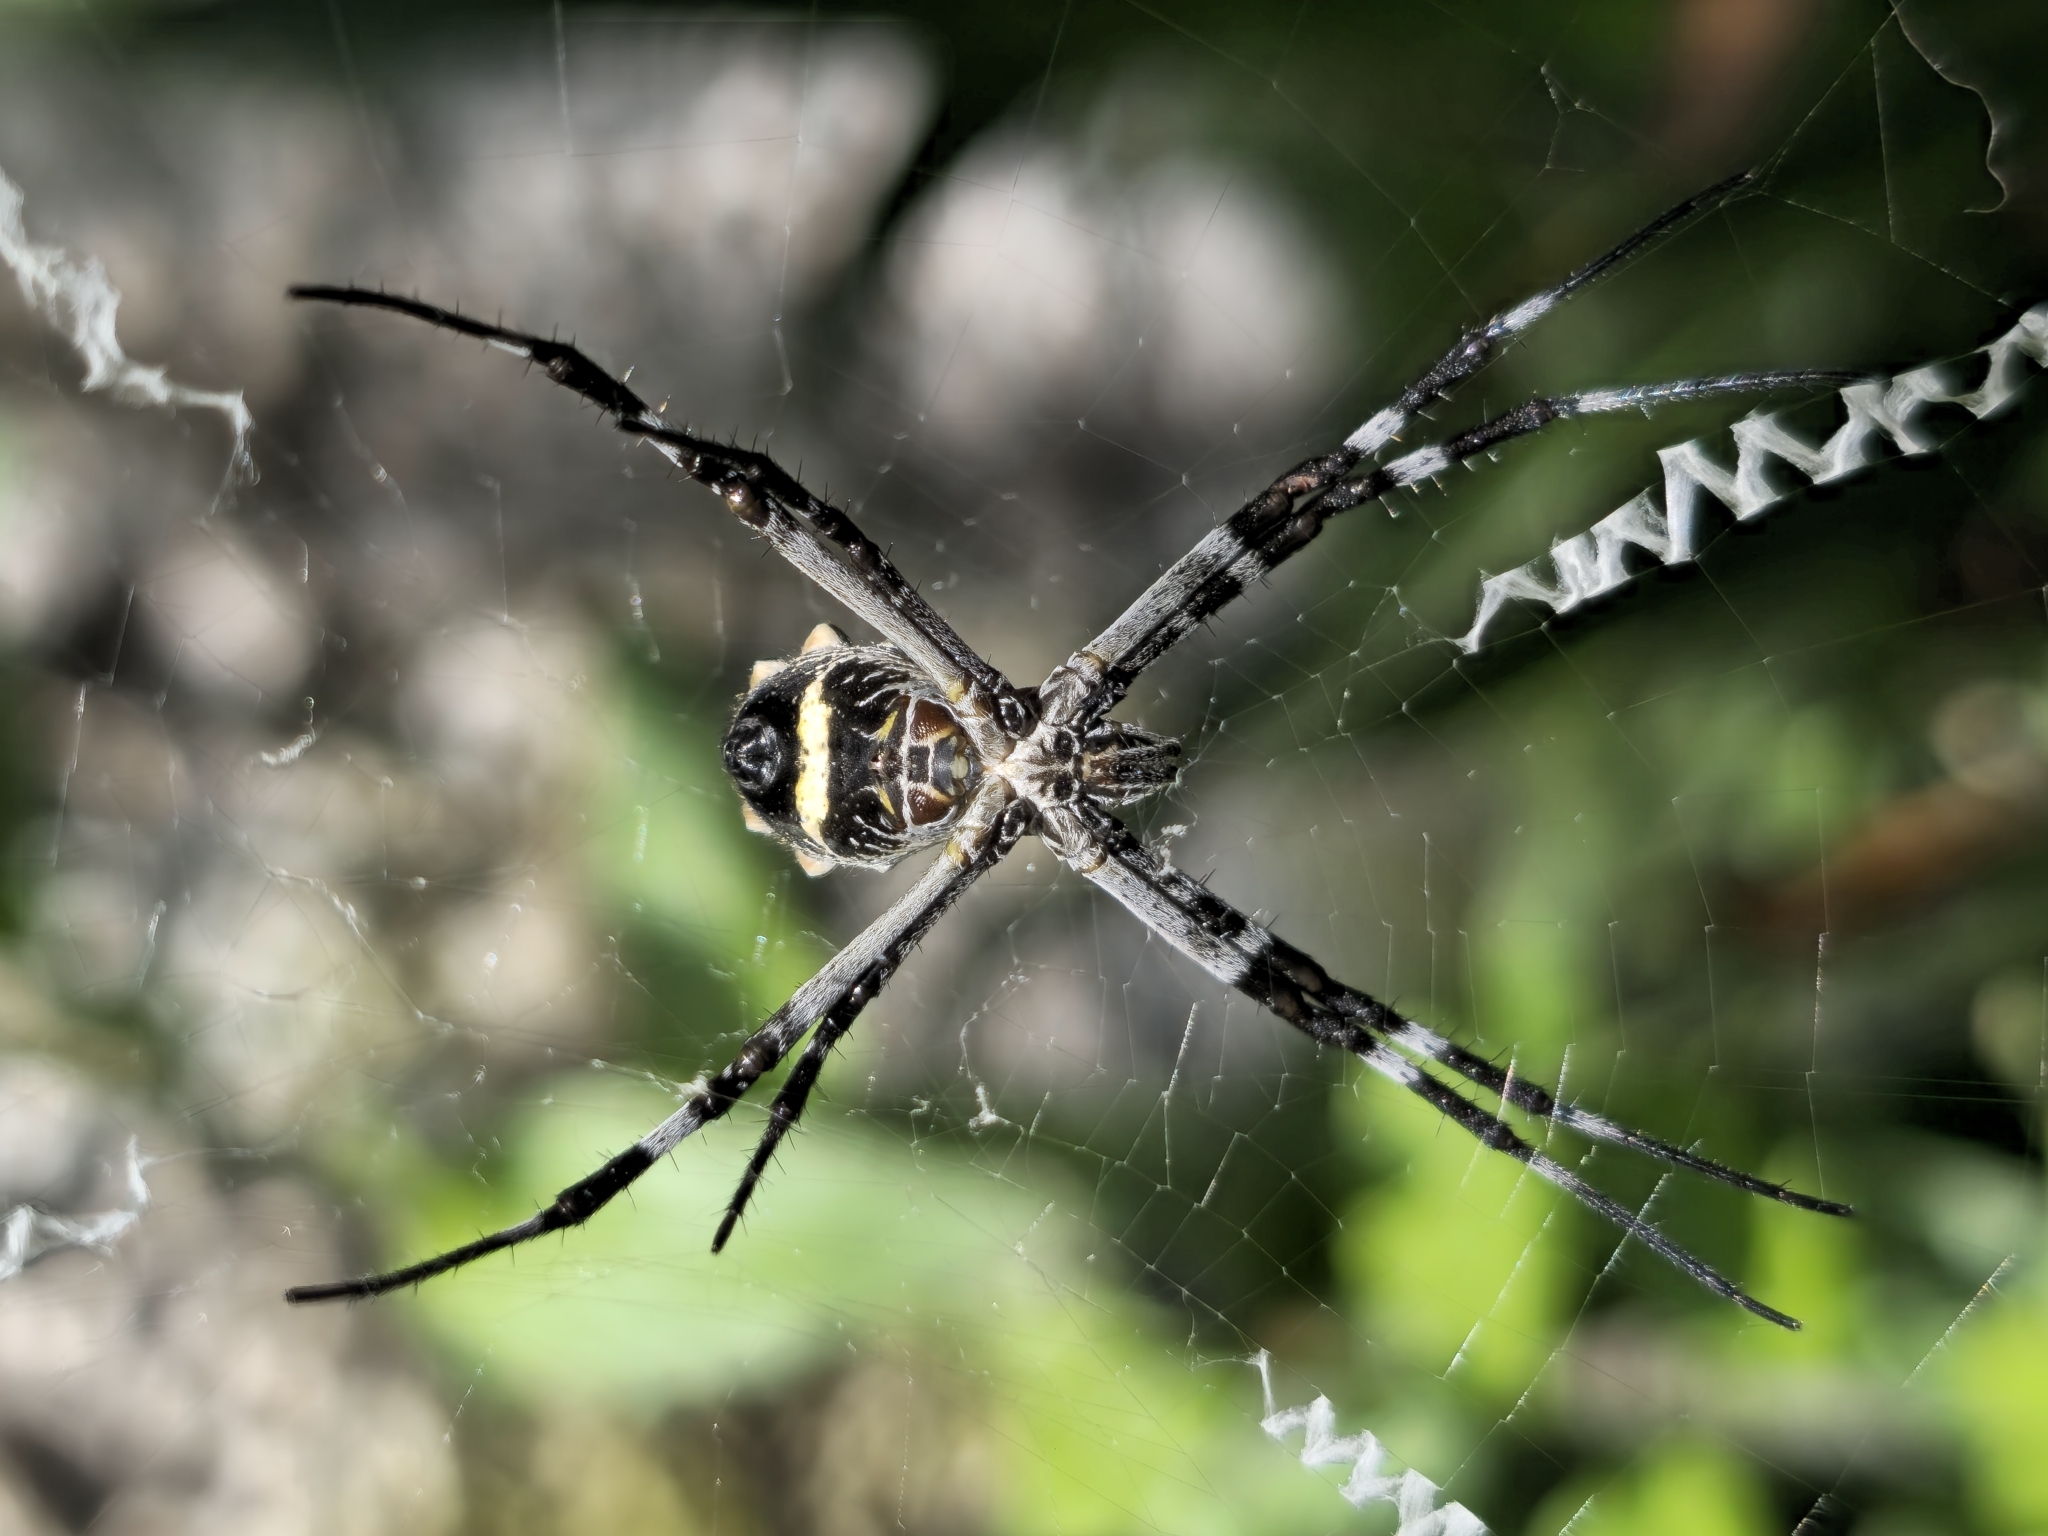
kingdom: Animalia
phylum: Arthropoda
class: Arachnida
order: Araneae
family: Araneidae
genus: Argiope
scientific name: Argiope argentata
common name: Orb weavers
